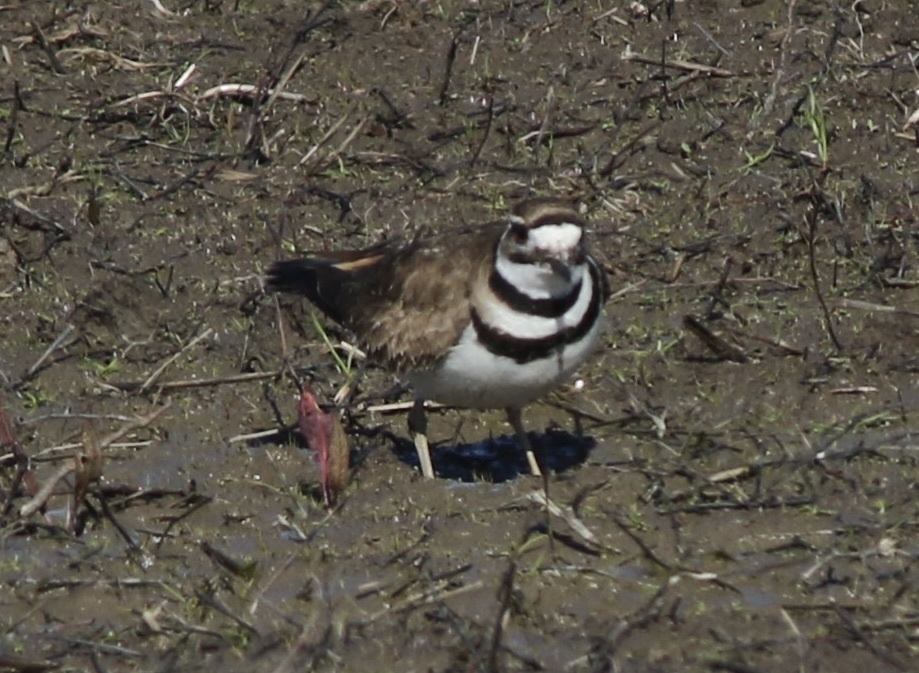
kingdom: Animalia
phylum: Chordata
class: Aves
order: Charadriiformes
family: Charadriidae
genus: Charadrius
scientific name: Charadrius vociferus
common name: Killdeer
